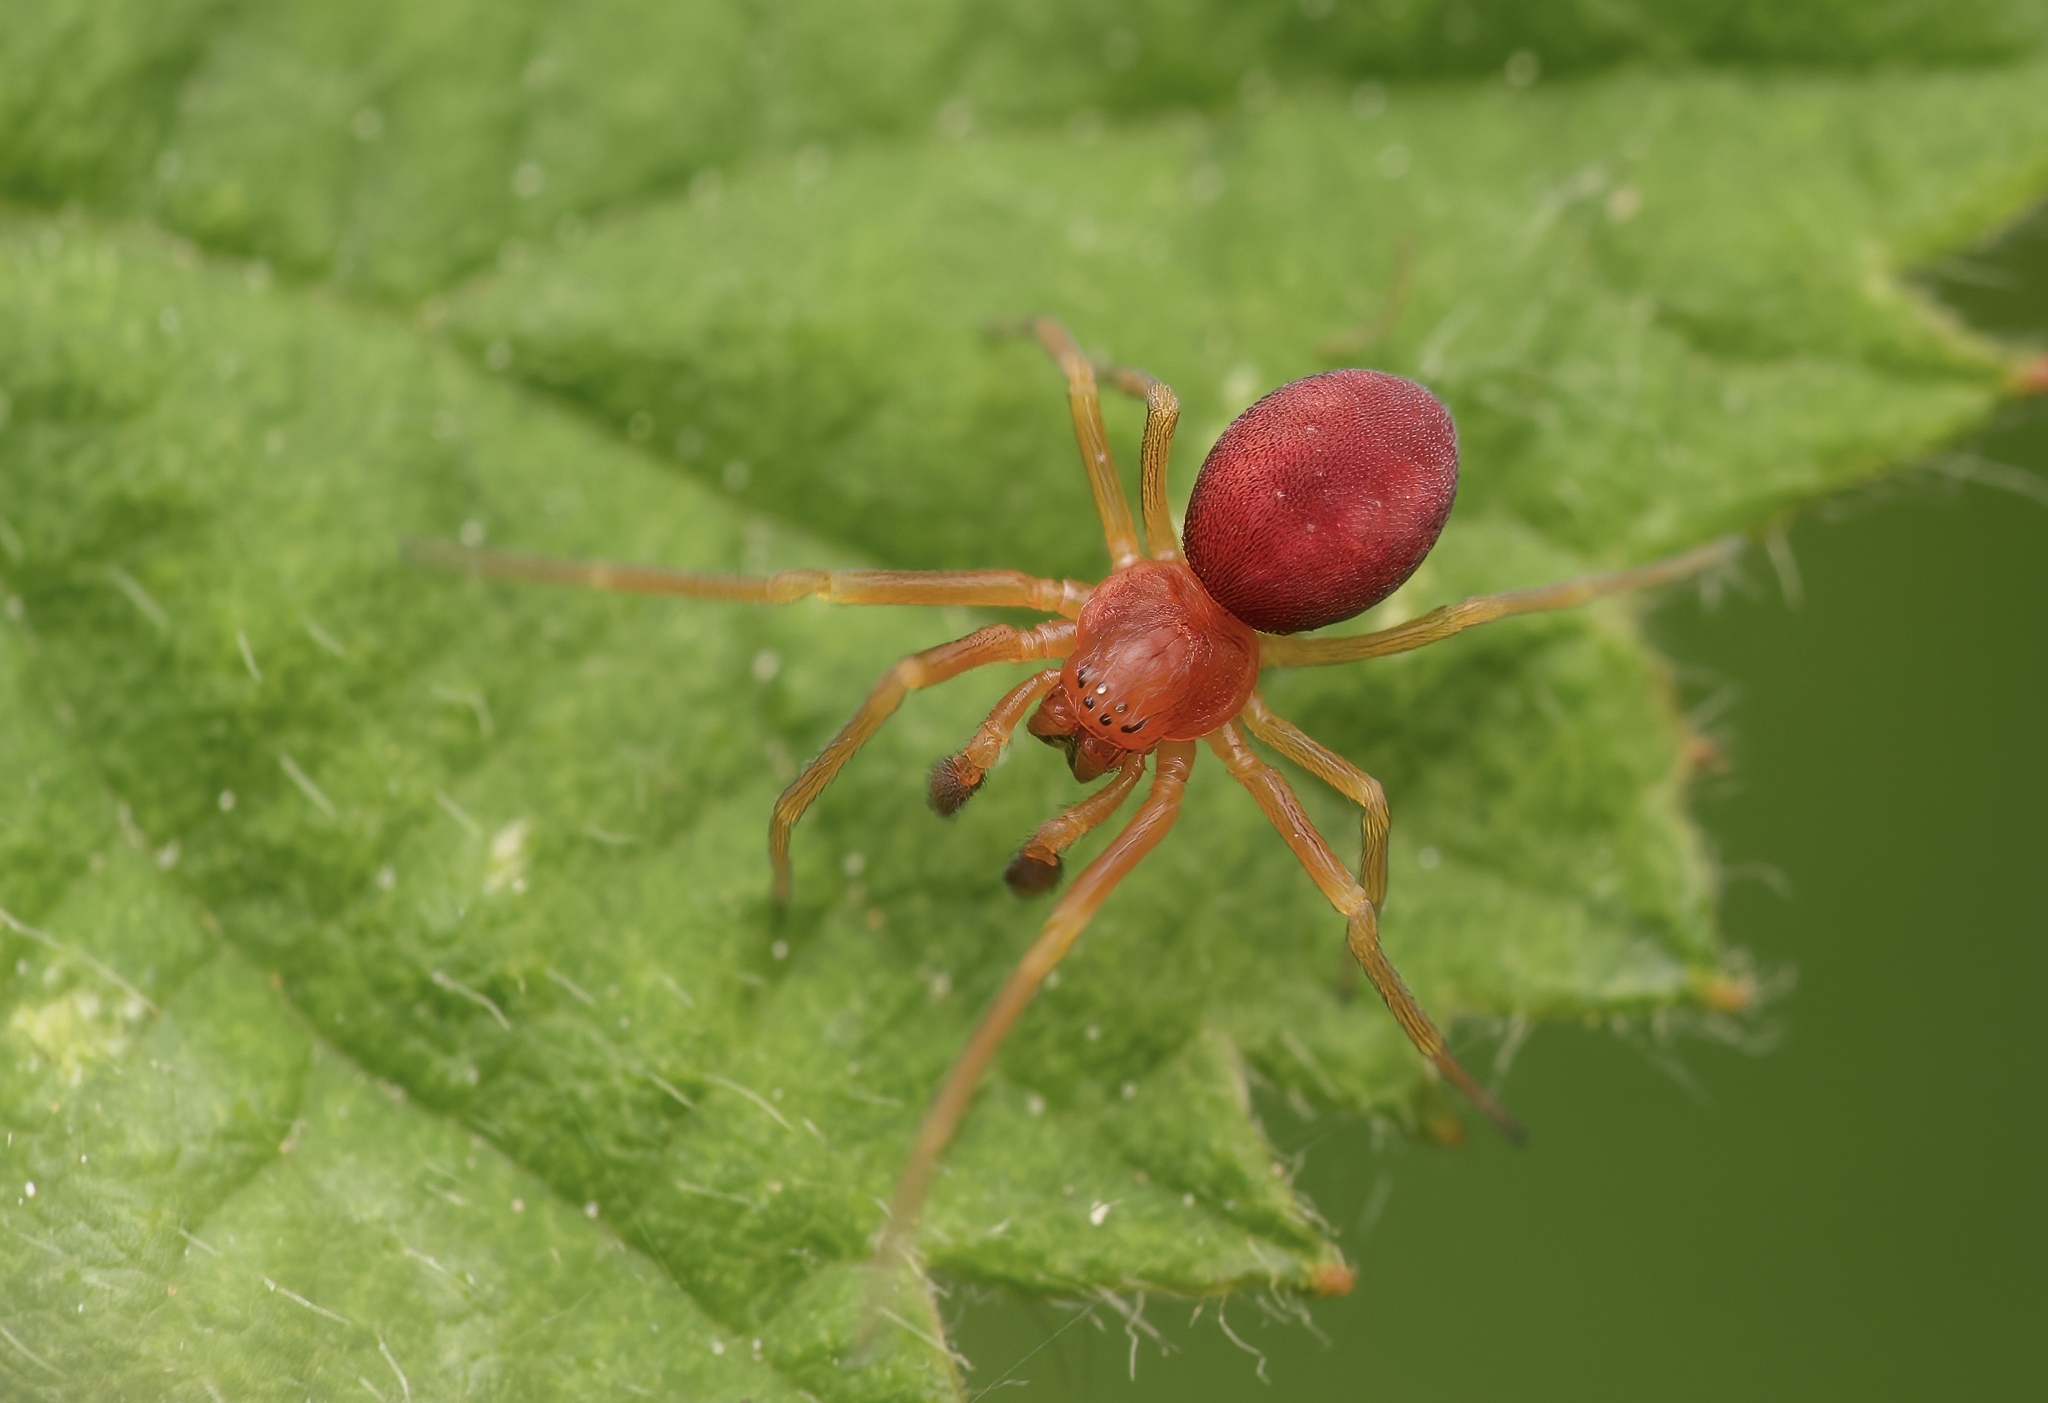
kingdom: Animalia
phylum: Arthropoda
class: Arachnida
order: Araneae
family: Dictynidae
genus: Nigma
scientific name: Nigma puella
